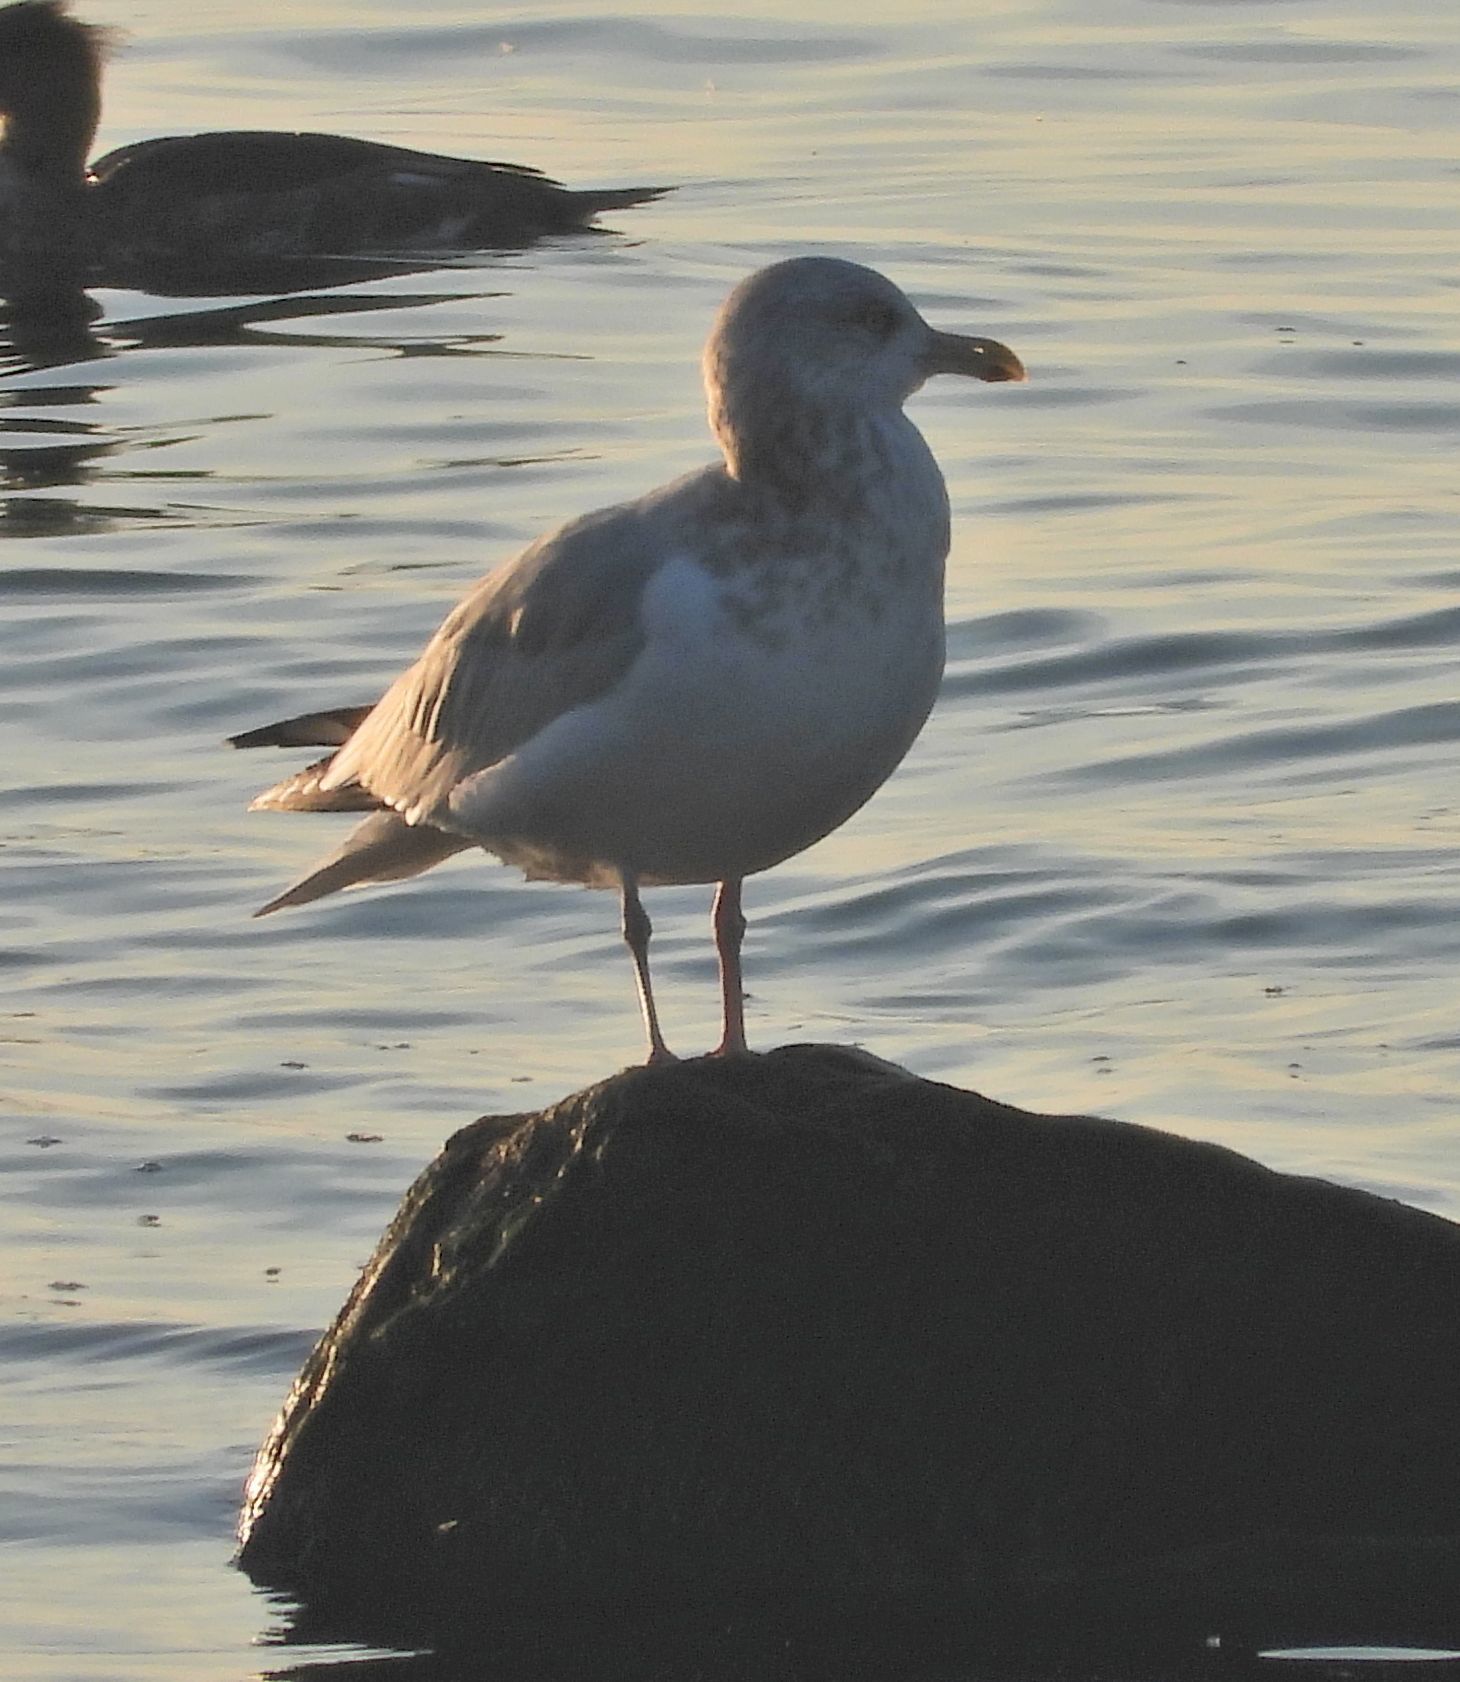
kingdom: Animalia
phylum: Chordata
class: Aves
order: Charadriiformes
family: Laridae
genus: Larus
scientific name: Larus argentatus
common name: Herring gull
